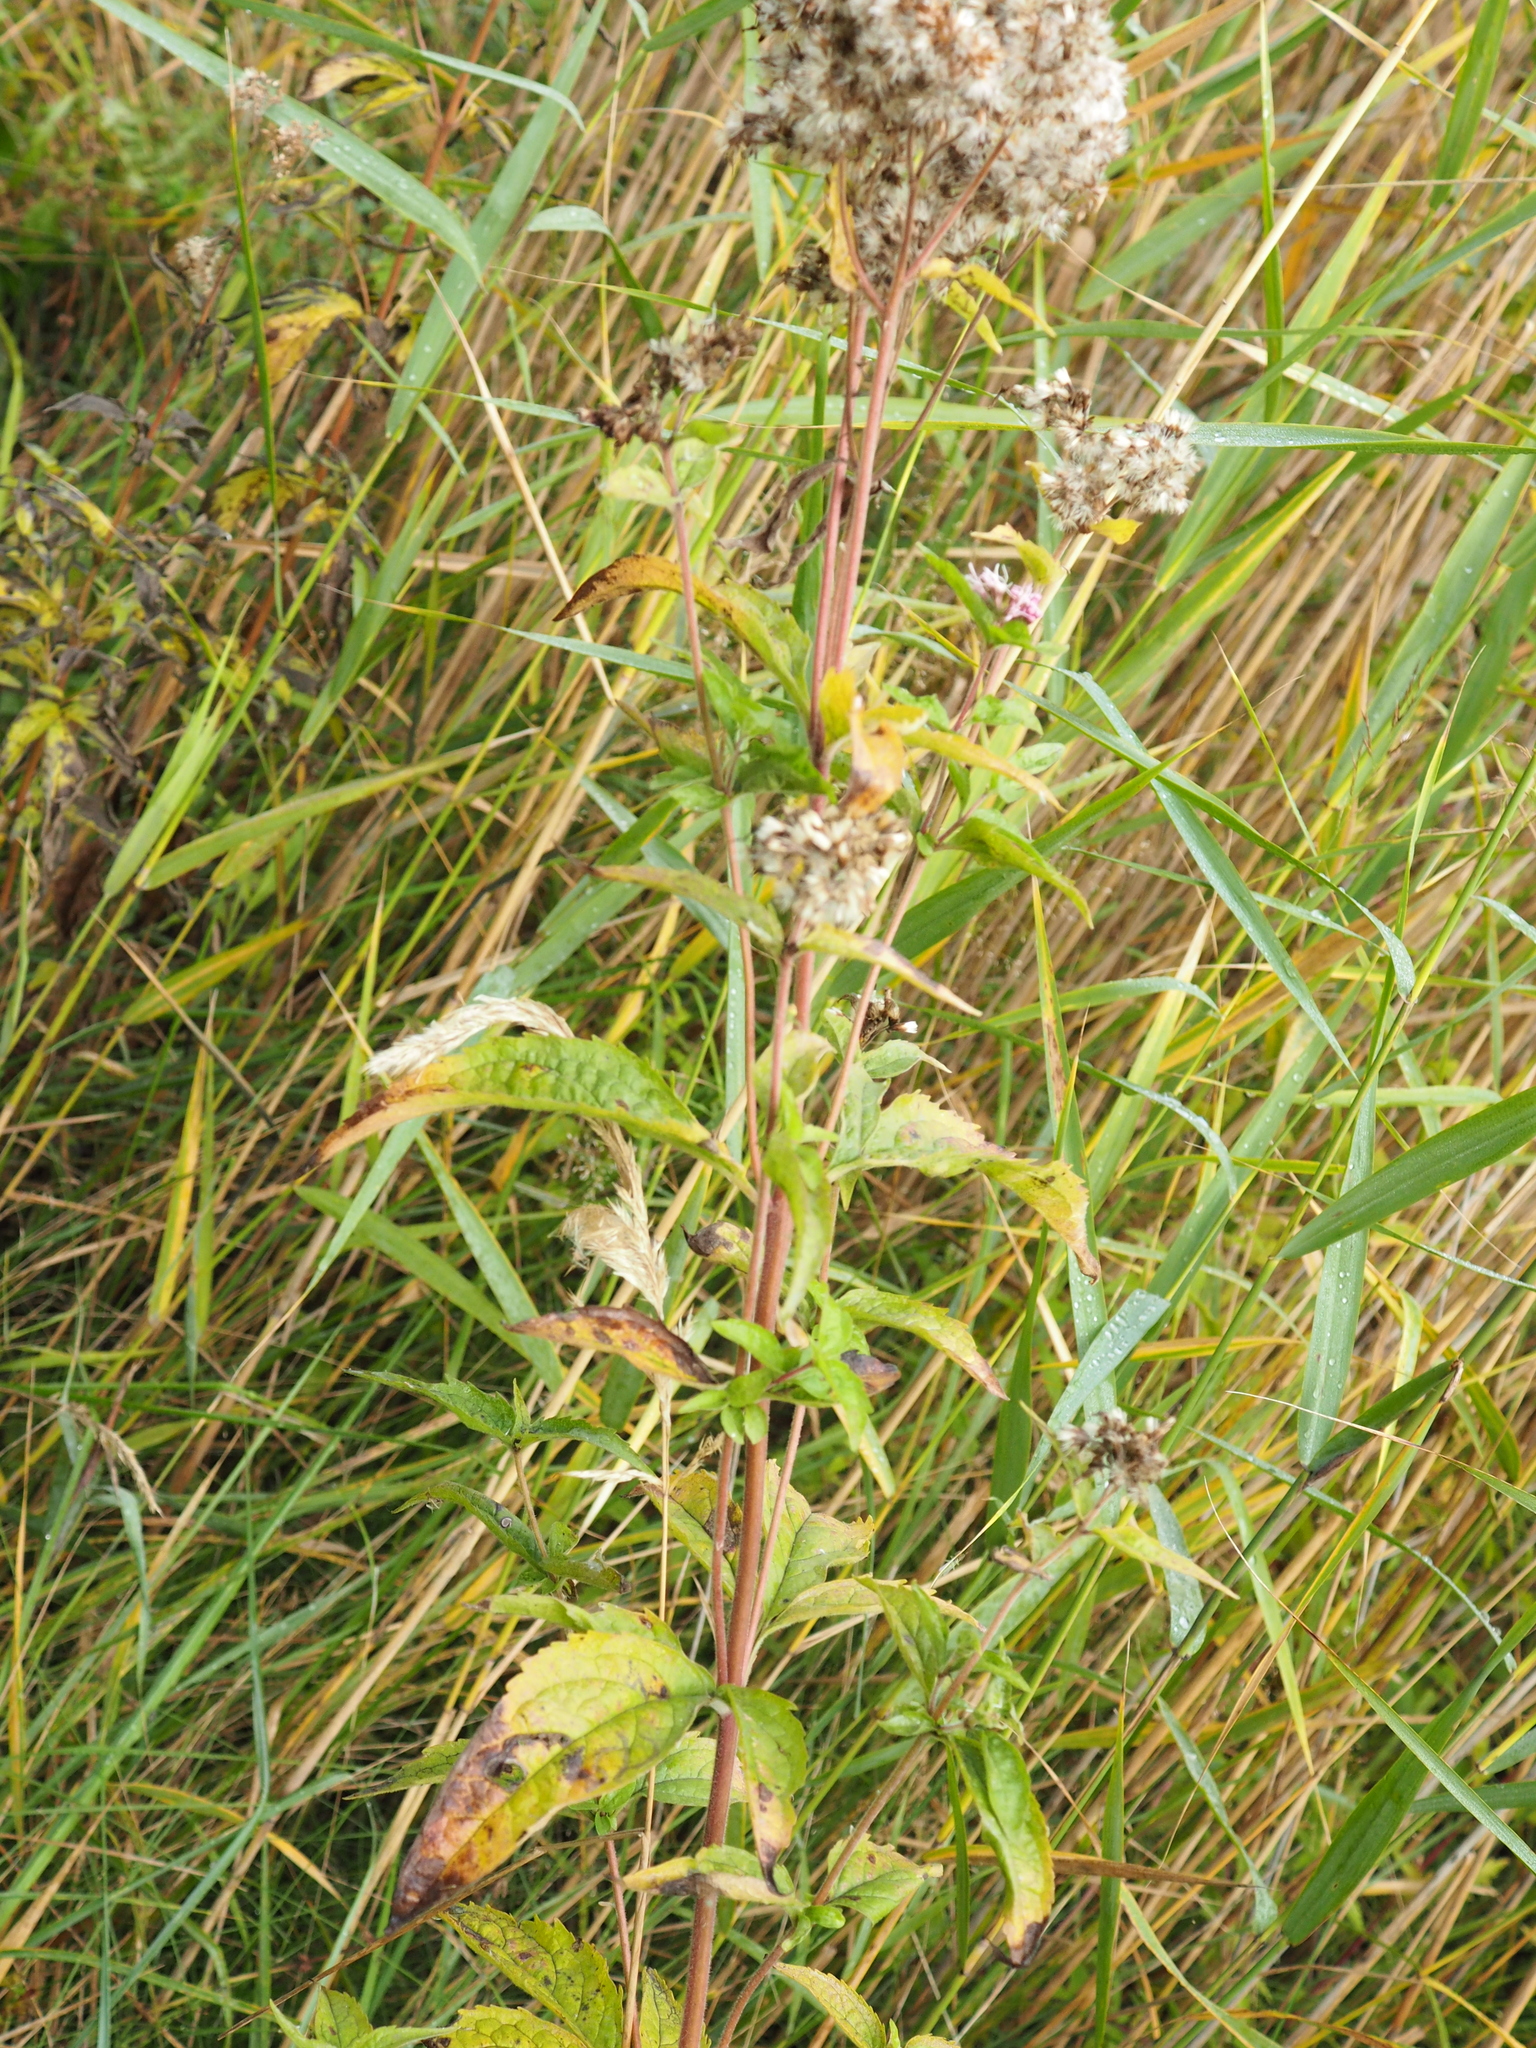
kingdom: Plantae
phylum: Tracheophyta
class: Magnoliopsida
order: Asterales
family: Asteraceae
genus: Eupatorium
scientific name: Eupatorium cannabinum
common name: Hemp-agrimony
